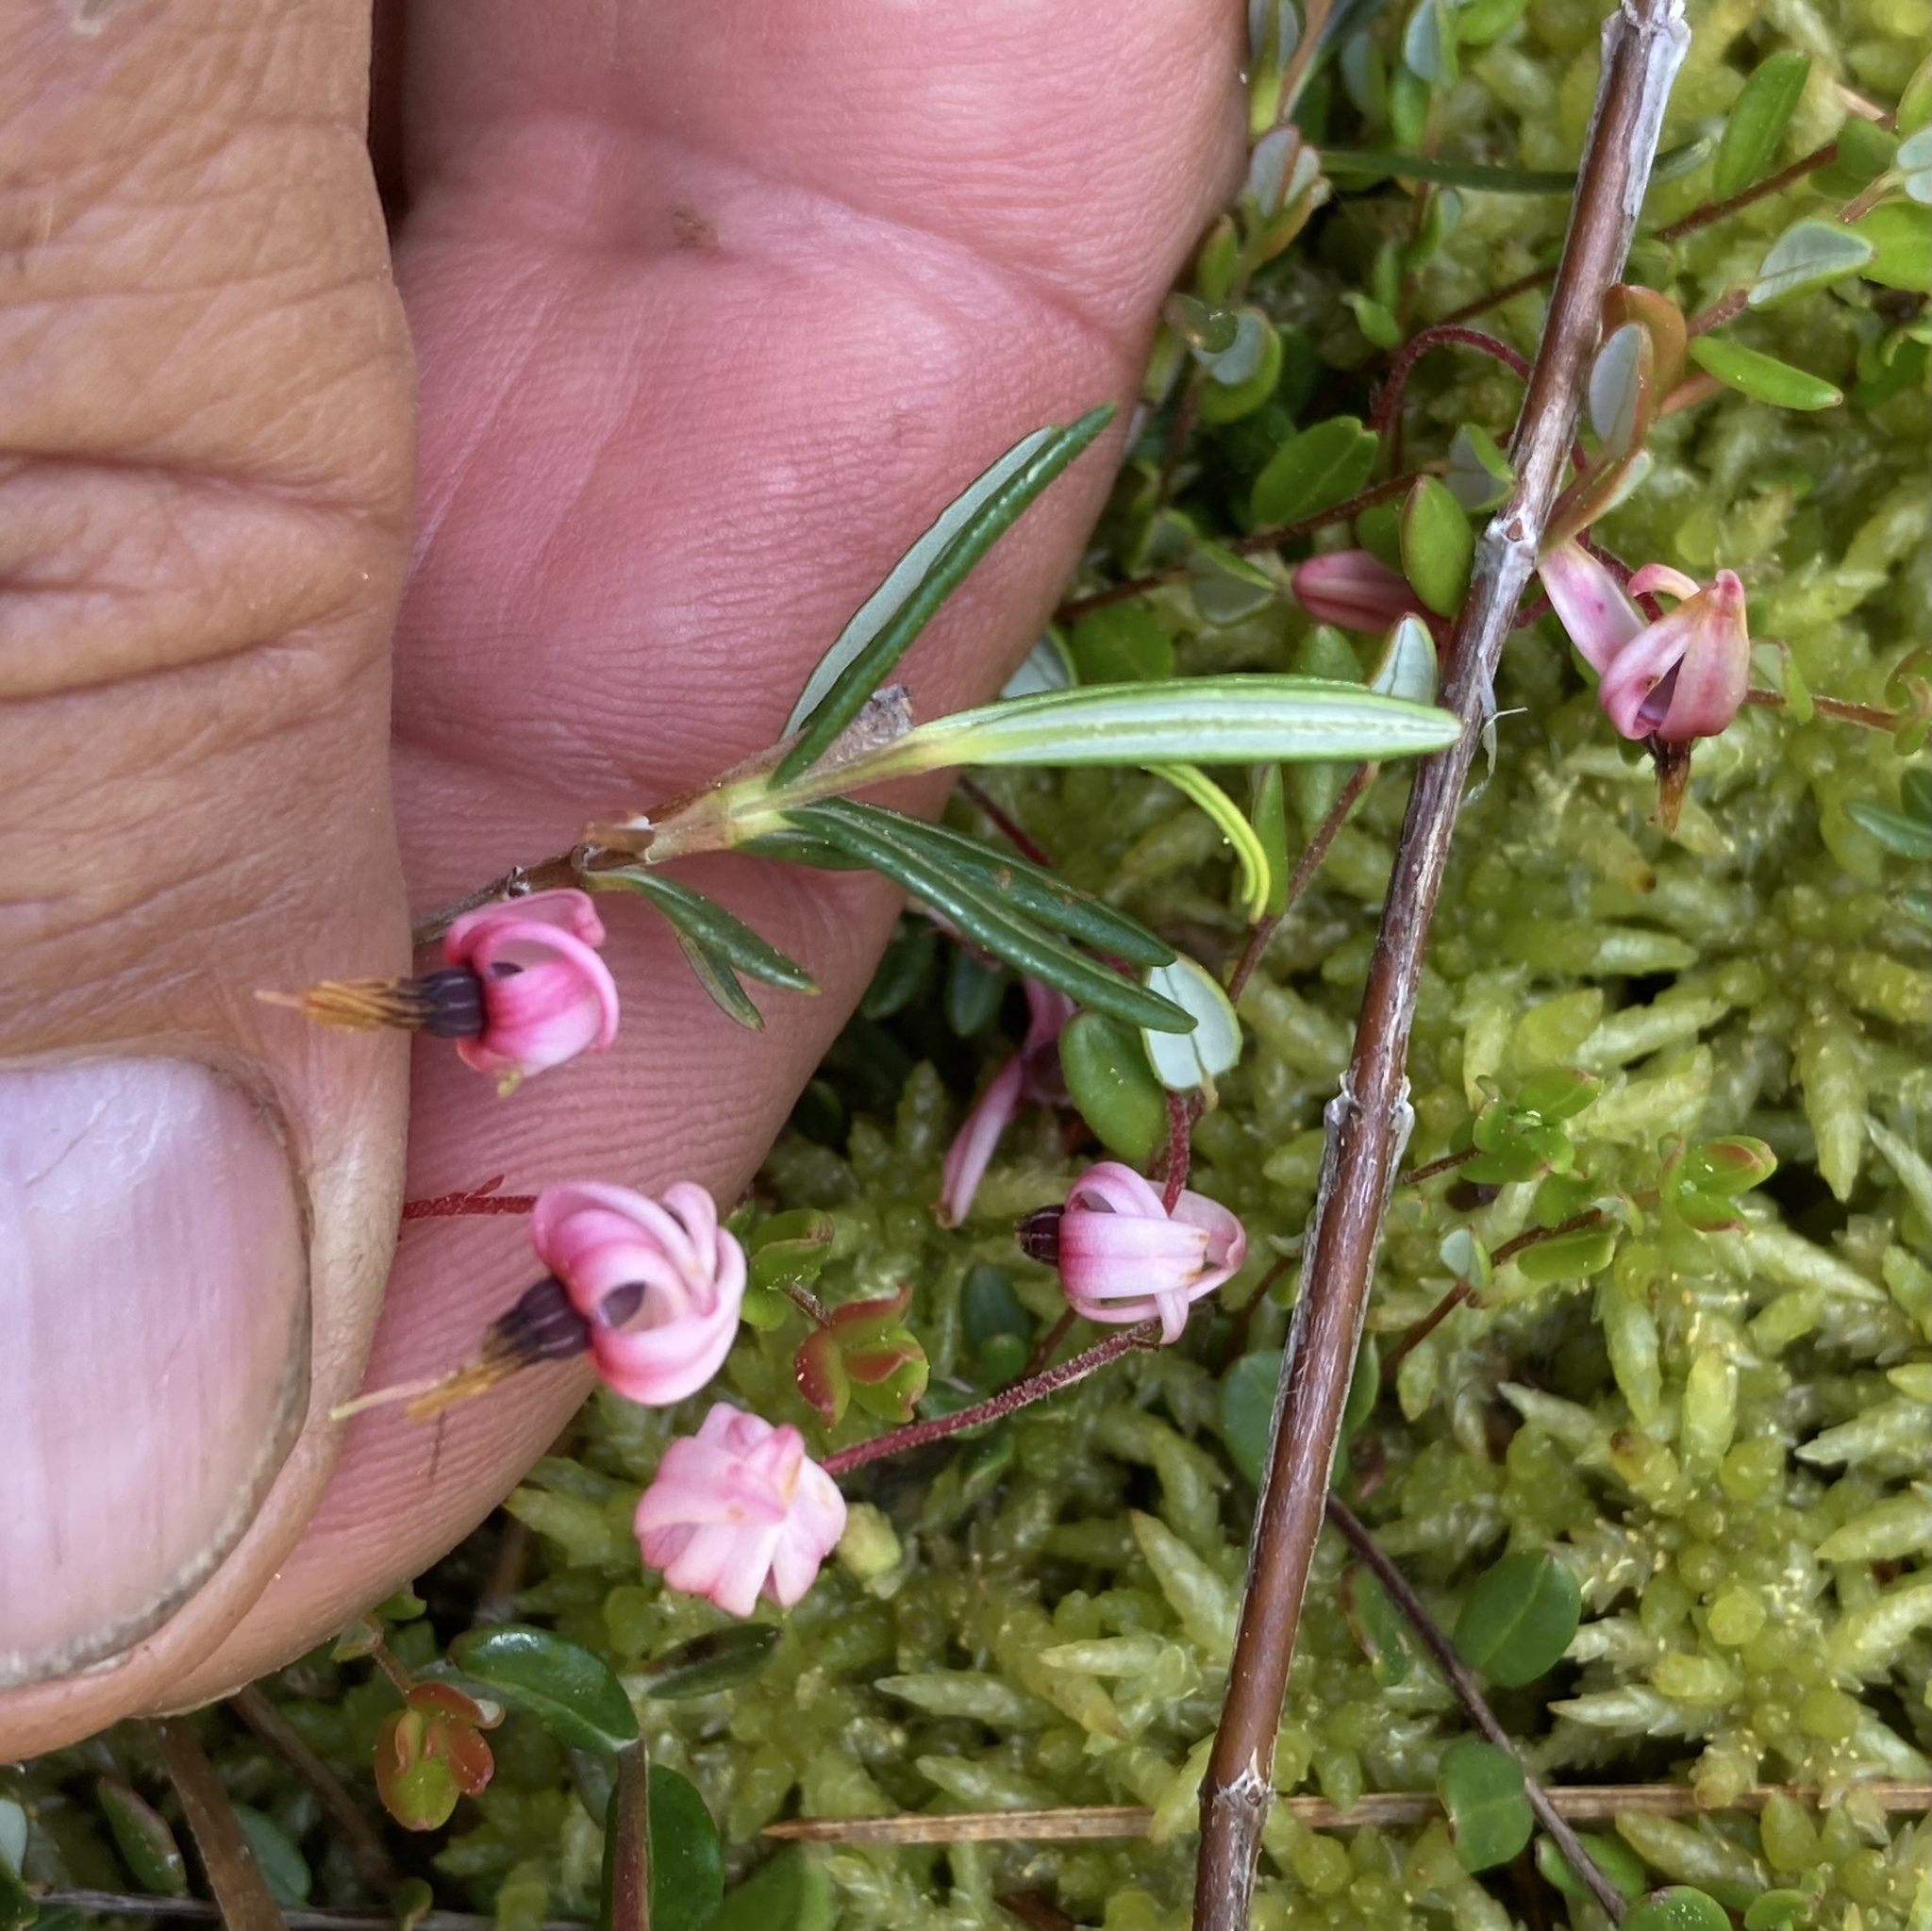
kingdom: Plantae
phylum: Tracheophyta
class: Magnoliopsida
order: Ericales
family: Ericaceae
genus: Vaccinium
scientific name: Vaccinium oxycoccos
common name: Cranberry
